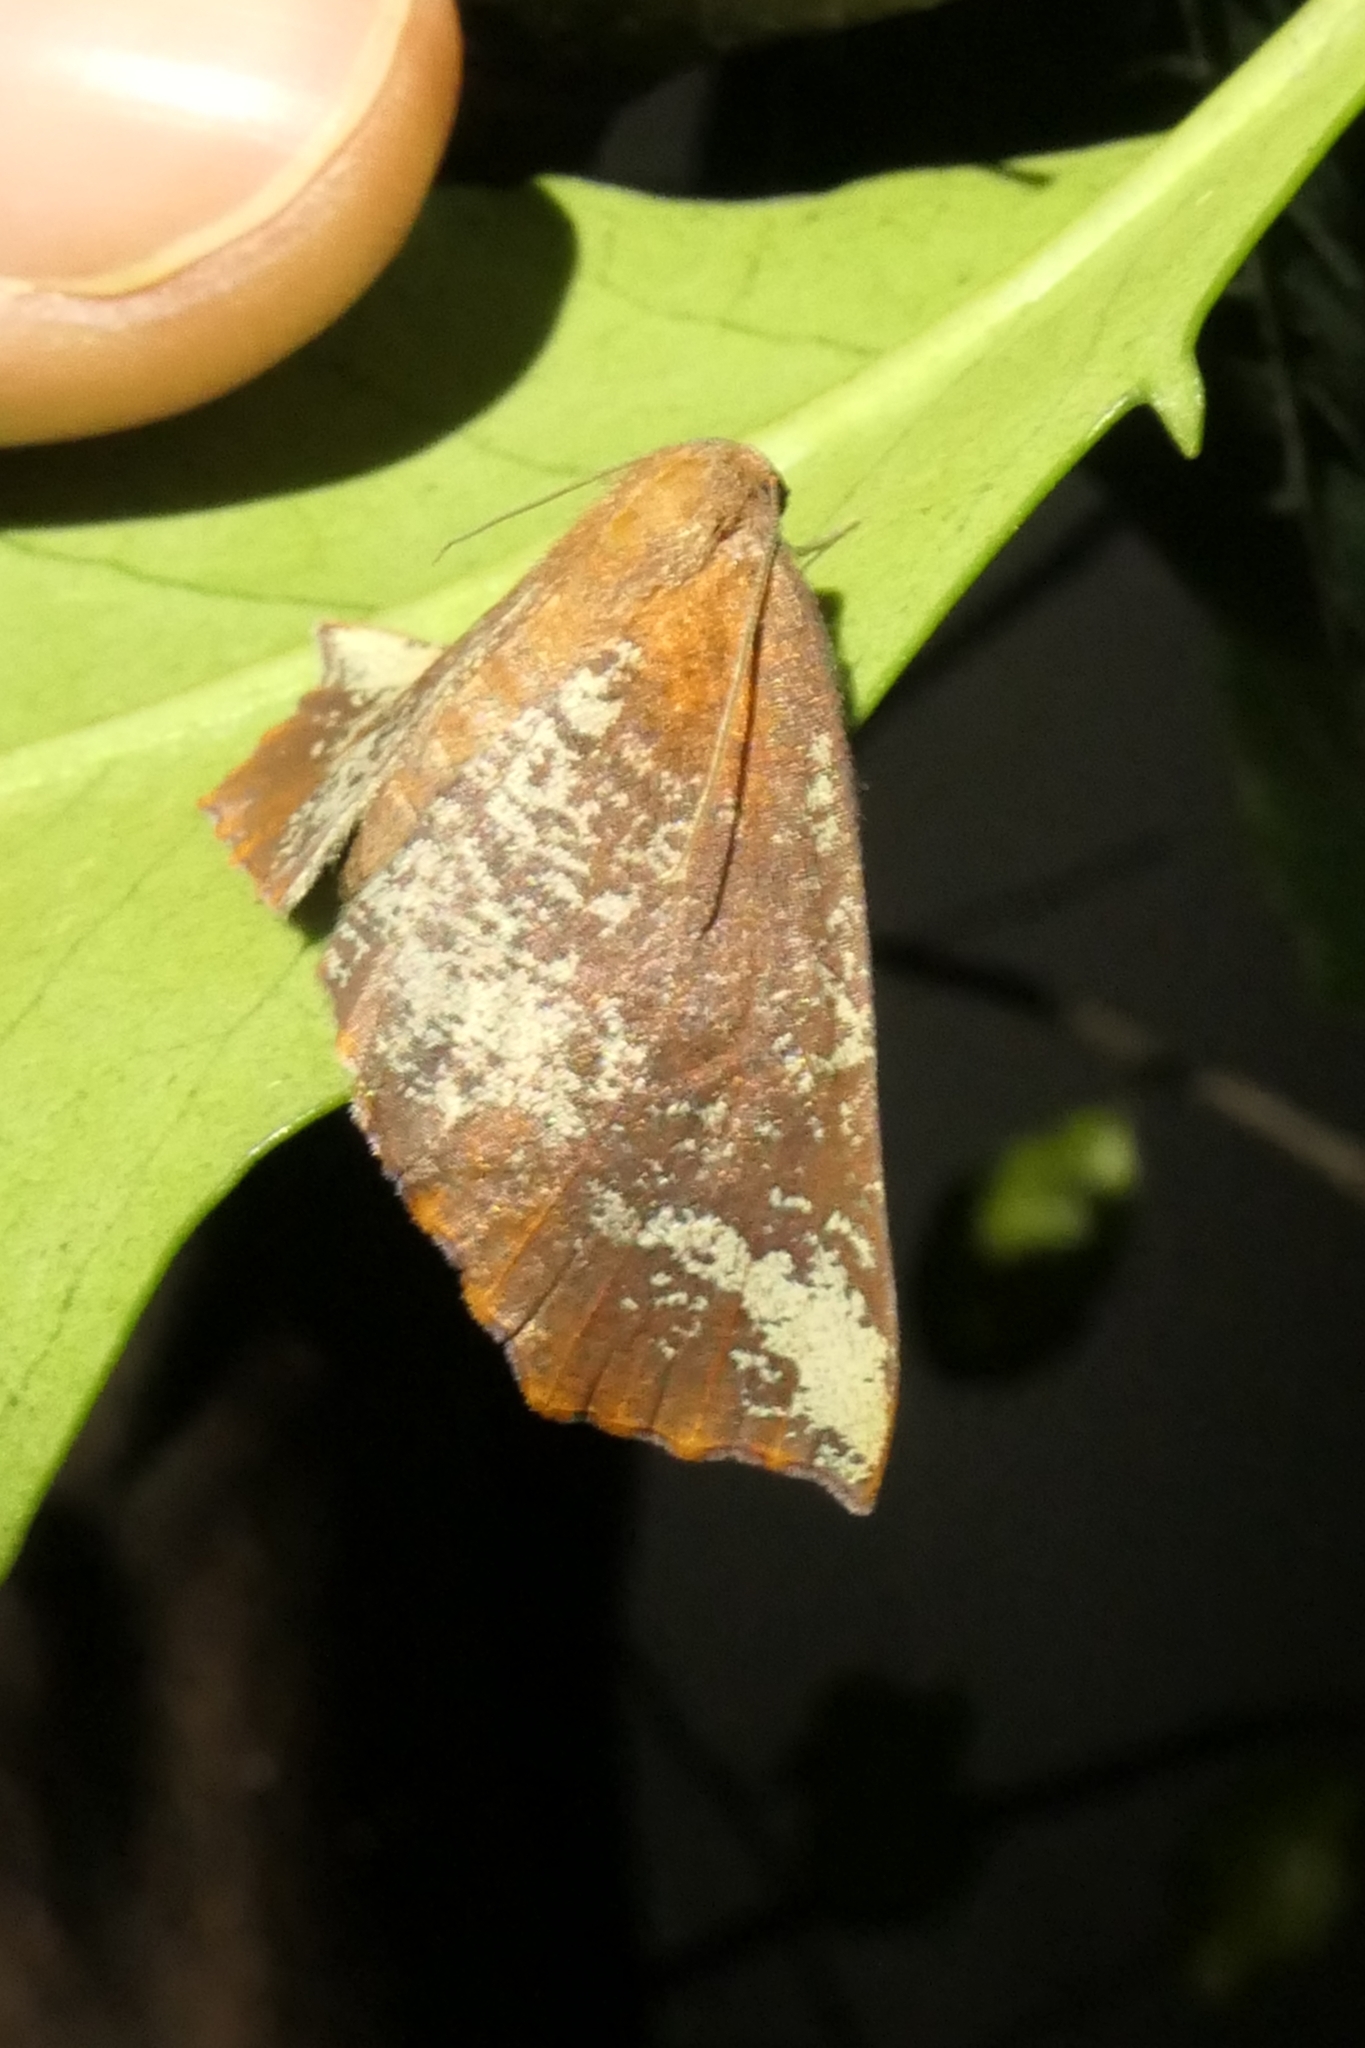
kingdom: Animalia
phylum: Arthropoda
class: Insecta
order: Lepidoptera
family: Geometridae
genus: Xyridacma
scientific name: Xyridacma ustaria
